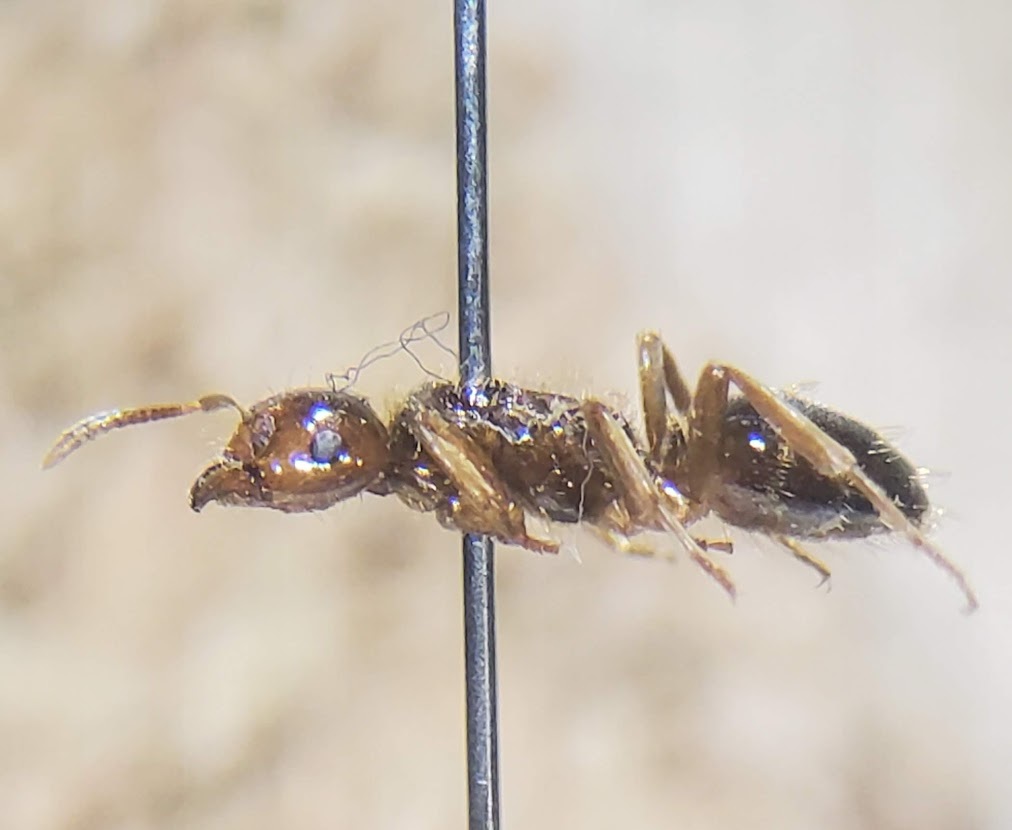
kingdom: Animalia
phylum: Arthropoda
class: Insecta
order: Hymenoptera
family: Formicidae
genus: Lasius
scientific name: Lasius claviger
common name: Common citronella ant
